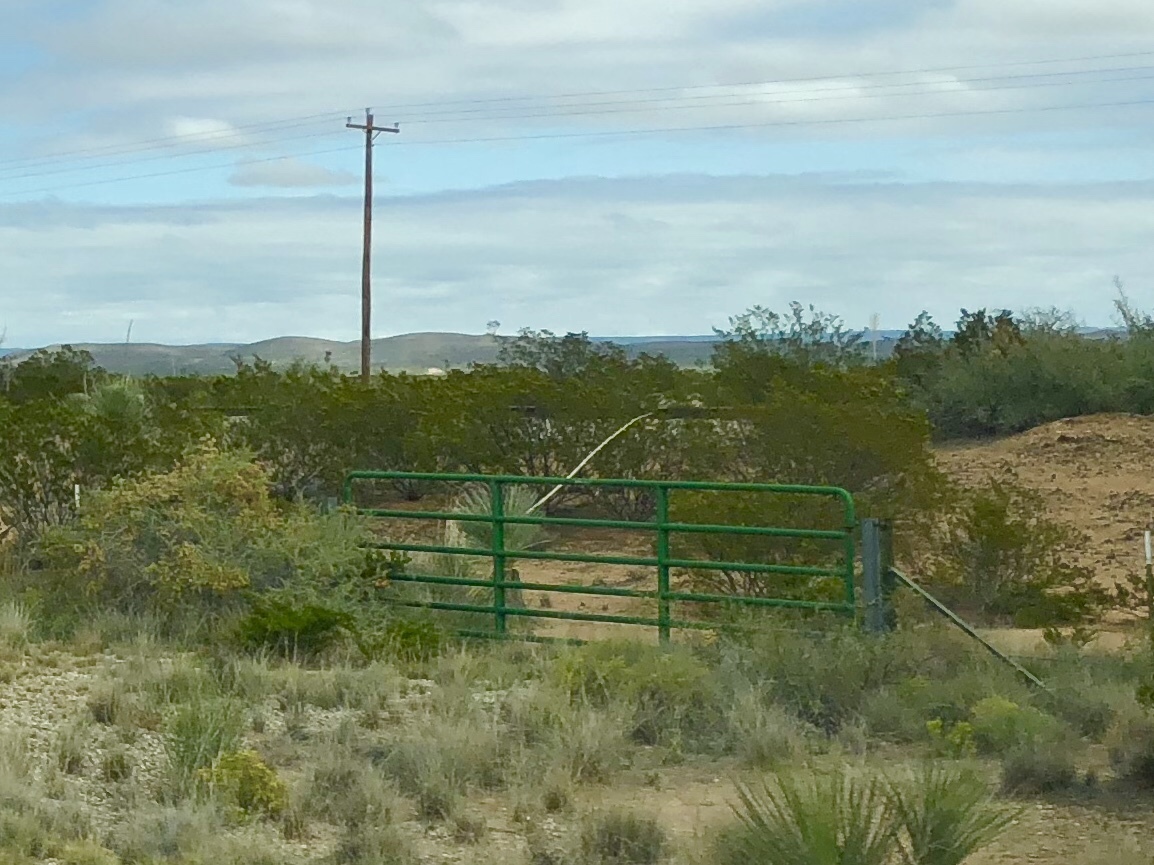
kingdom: Plantae
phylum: Tracheophyta
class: Magnoliopsida
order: Zygophyllales
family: Zygophyllaceae
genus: Larrea
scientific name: Larrea tridentata
